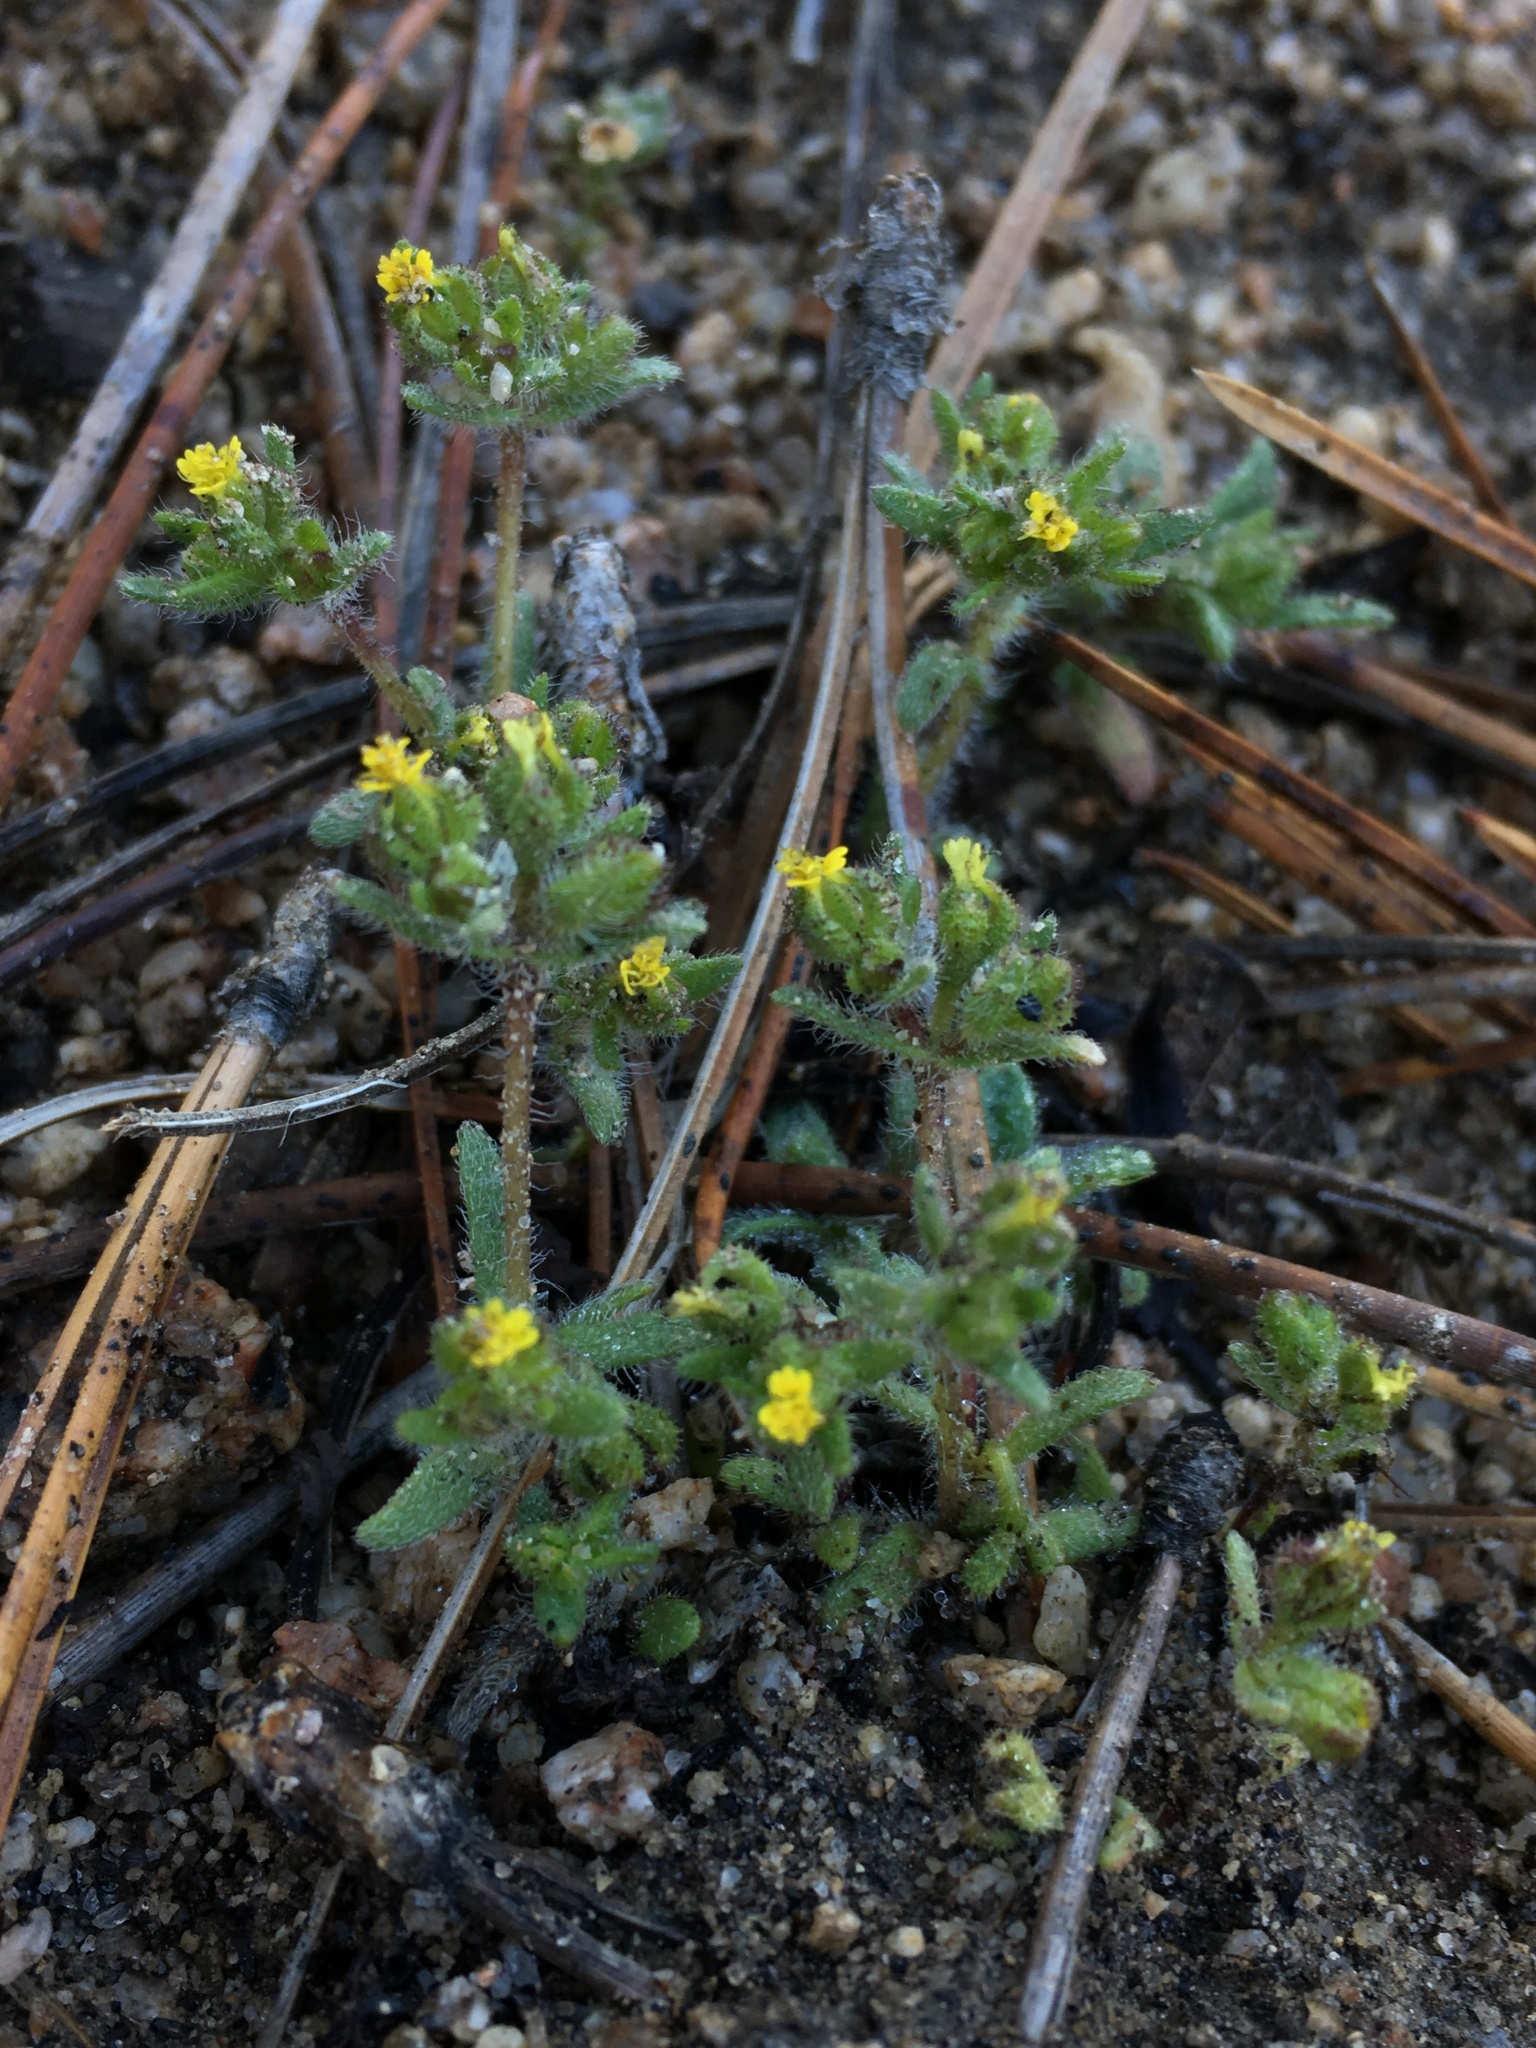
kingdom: Plantae
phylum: Tracheophyta
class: Magnoliopsida
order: Asterales
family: Asteraceae
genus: Hemizonella
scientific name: Hemizonella minima
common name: Opposite-leaved tarweed
